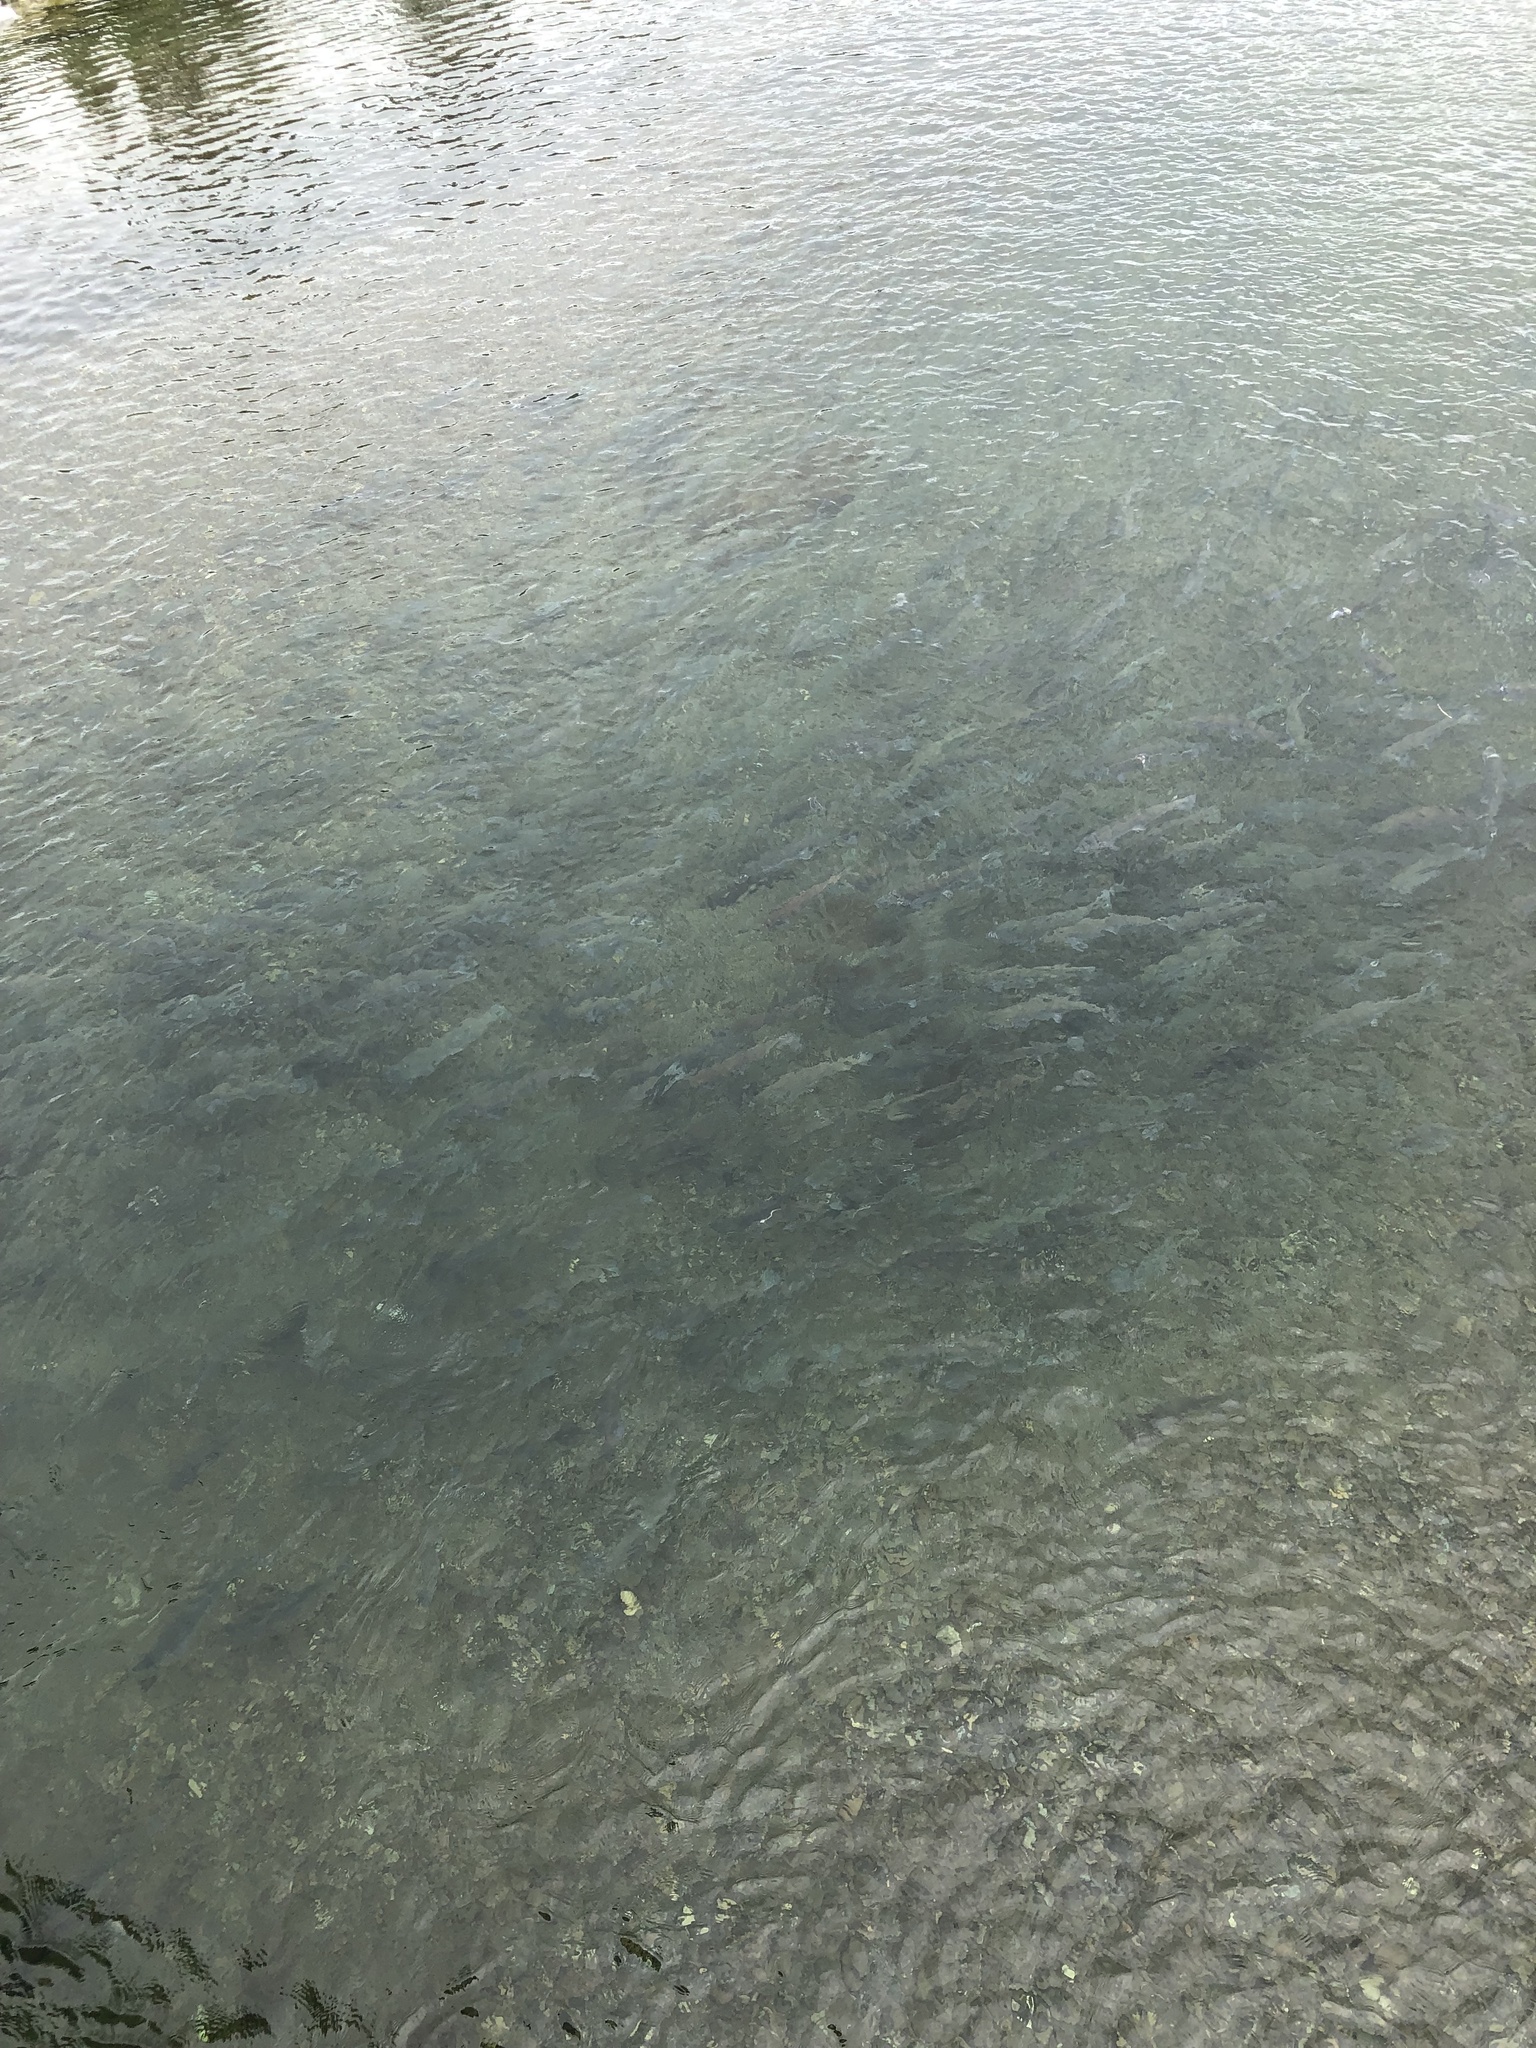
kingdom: Animalia
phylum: Chordata
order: Salmoniformes
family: Salmonidae
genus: Oncorhynchus
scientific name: Oncorhynchus nerka
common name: Sockeye salmon
